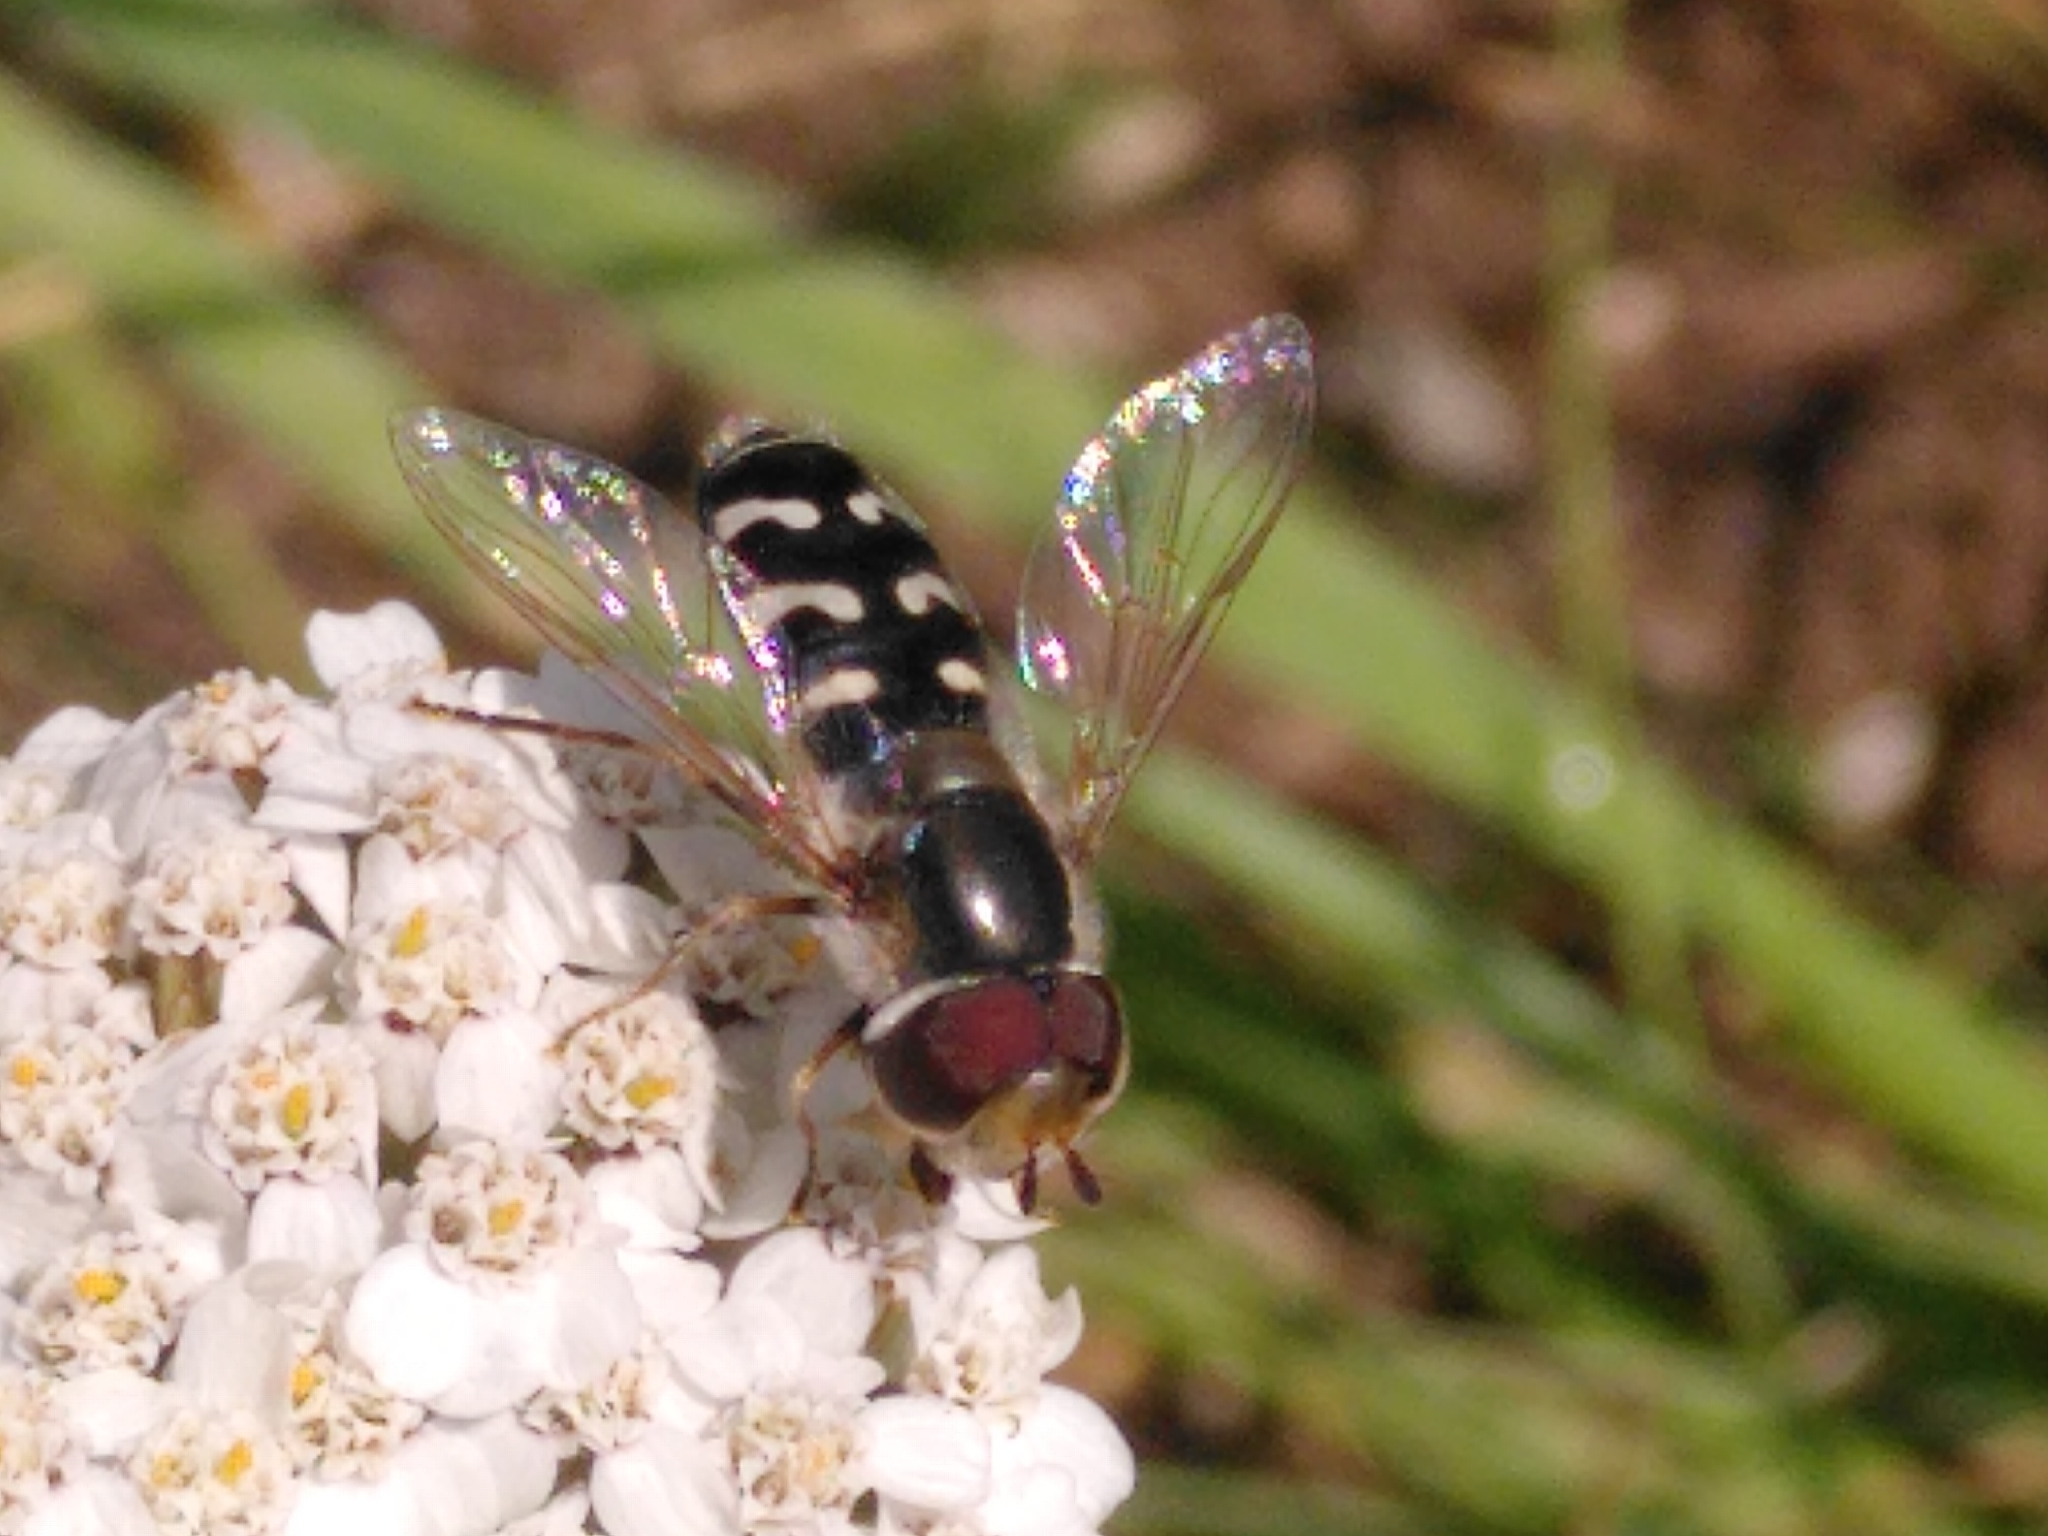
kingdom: Animalia
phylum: Arthropoda
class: Insecta
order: Diptera
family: Syrphidae
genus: Scaeva
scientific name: Scaeva pyrastri
